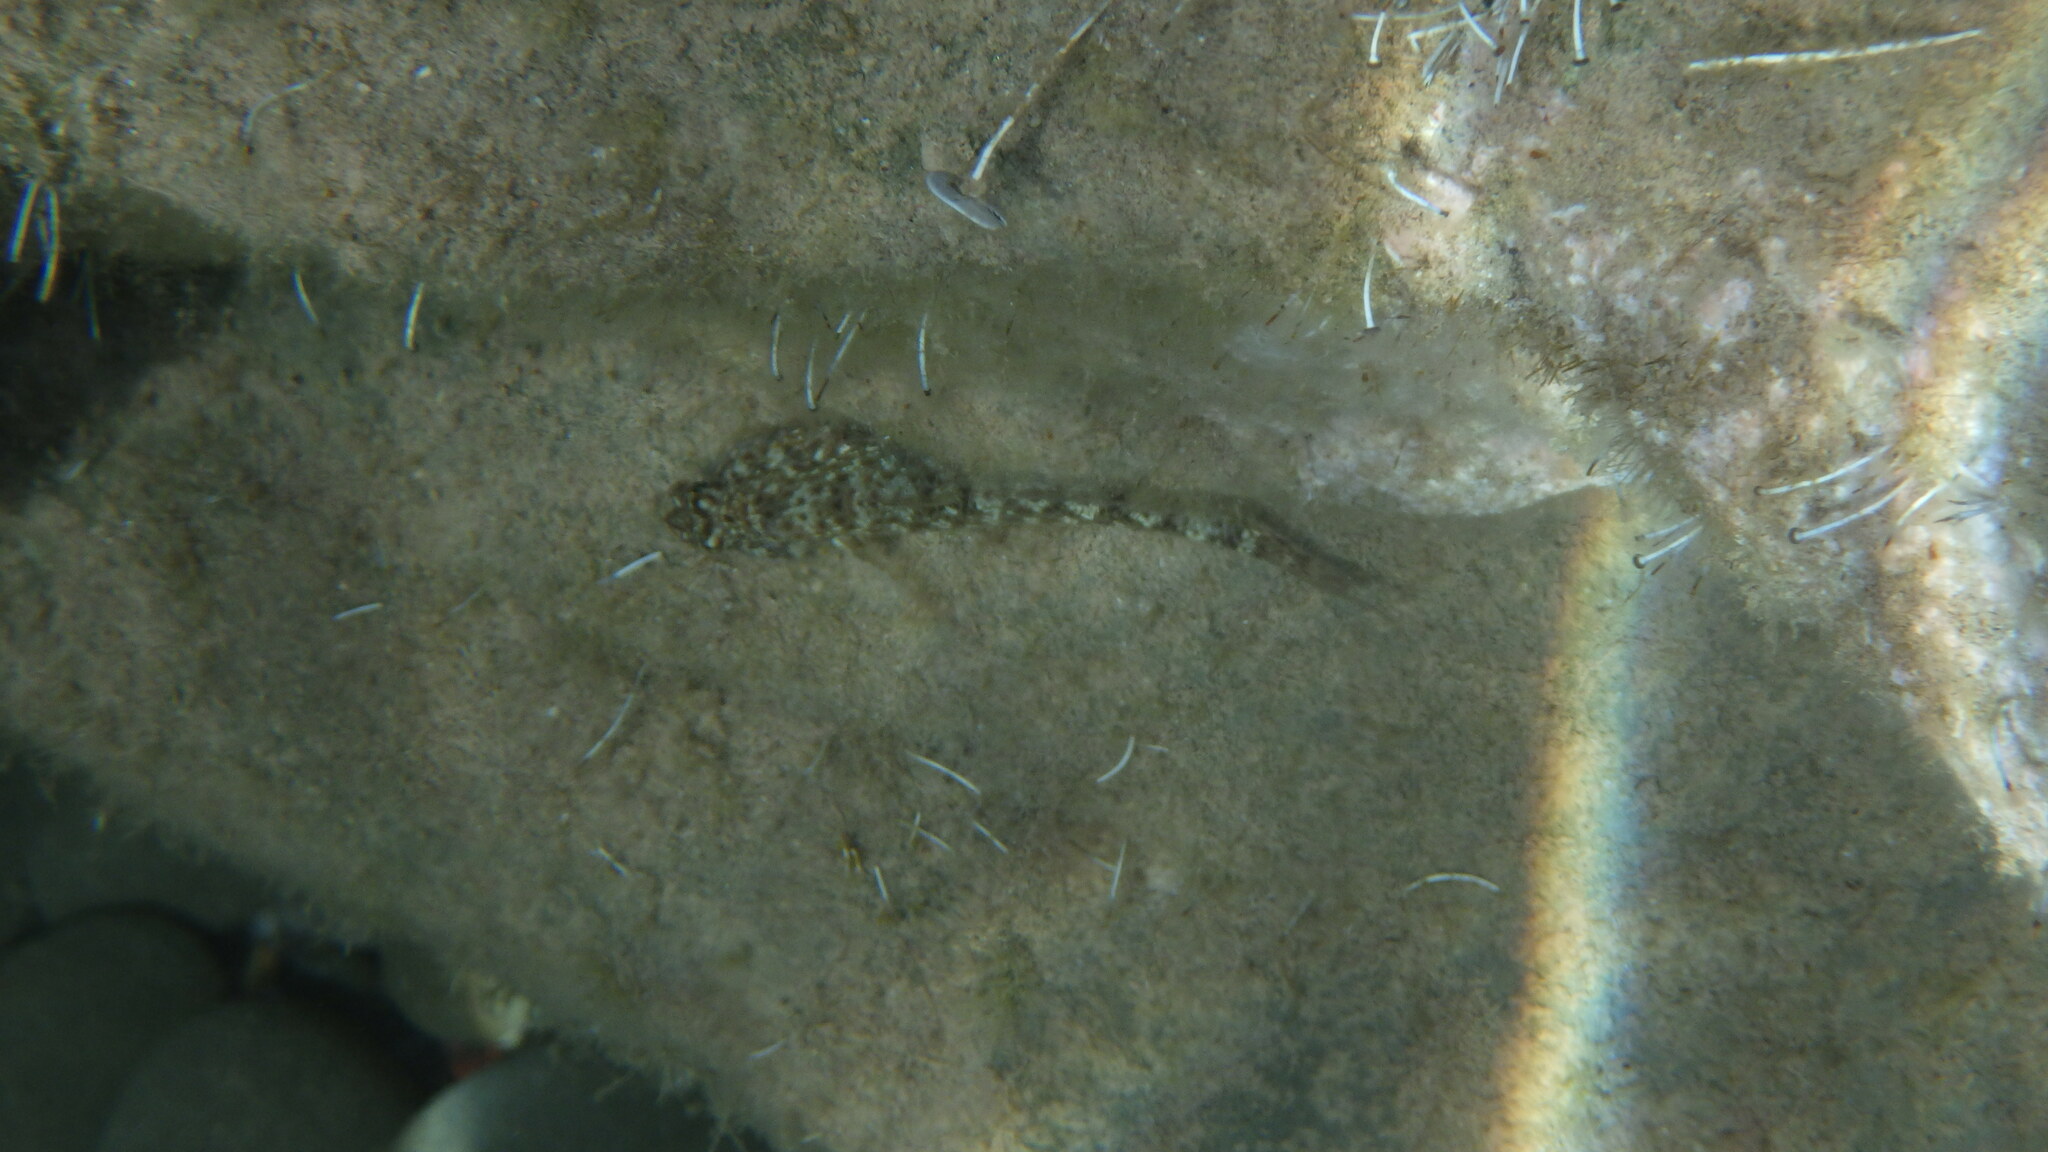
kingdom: Animalia
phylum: Chordata
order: Perciformes
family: Gobiidae
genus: Gobius
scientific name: Gobius incognitus
